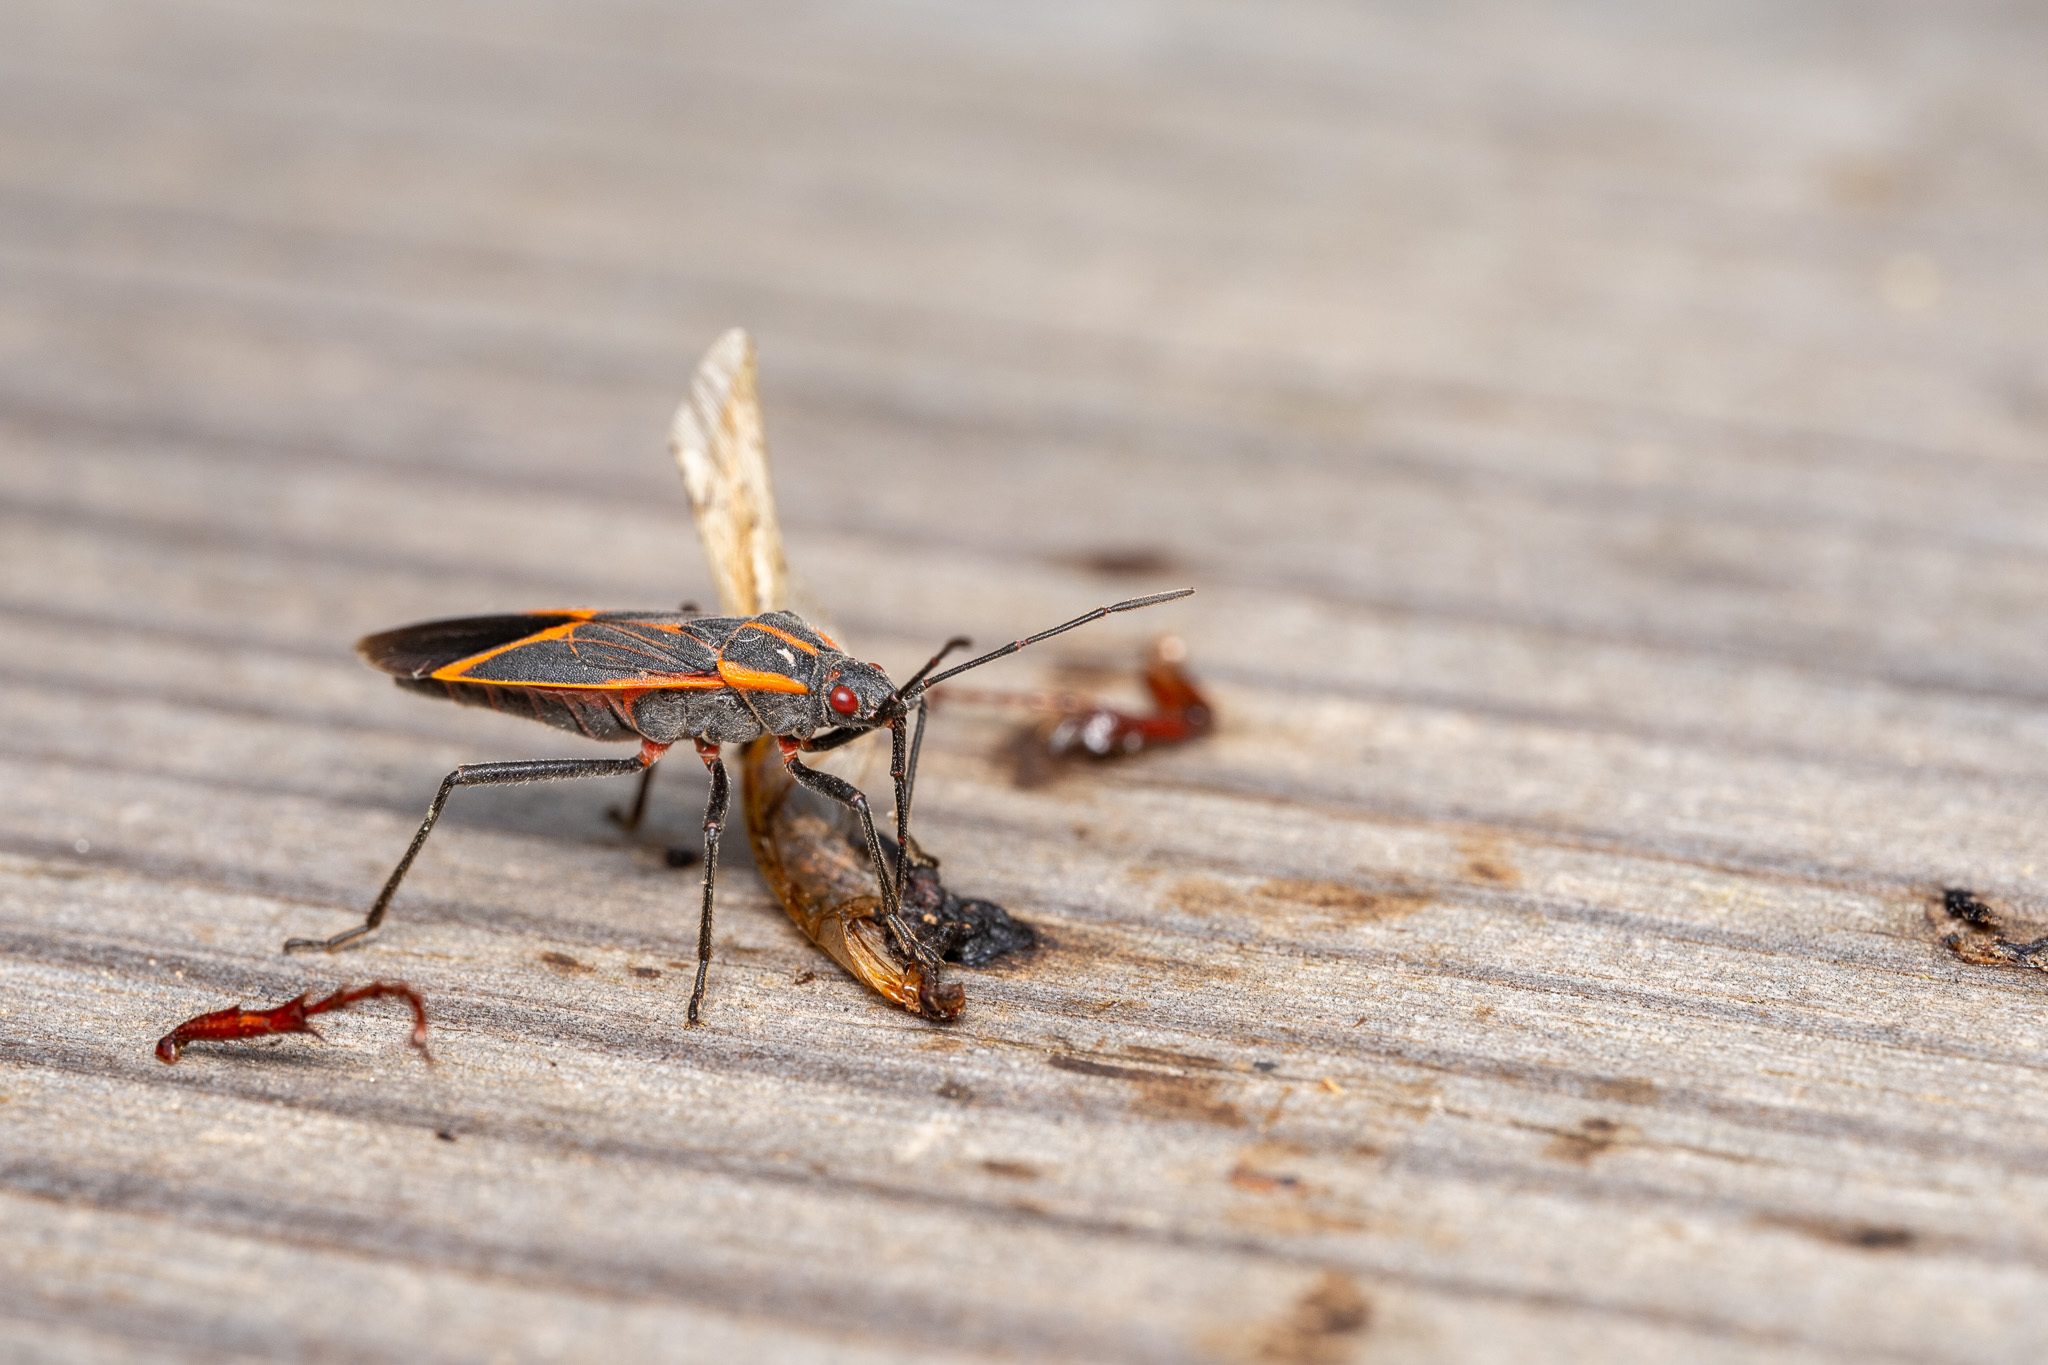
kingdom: Animalia
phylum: Arthropoda
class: Insecta
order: Hemiptera
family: Rhopalidae
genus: Boisea
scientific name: Boisea trivittata
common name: Boxelder bug
